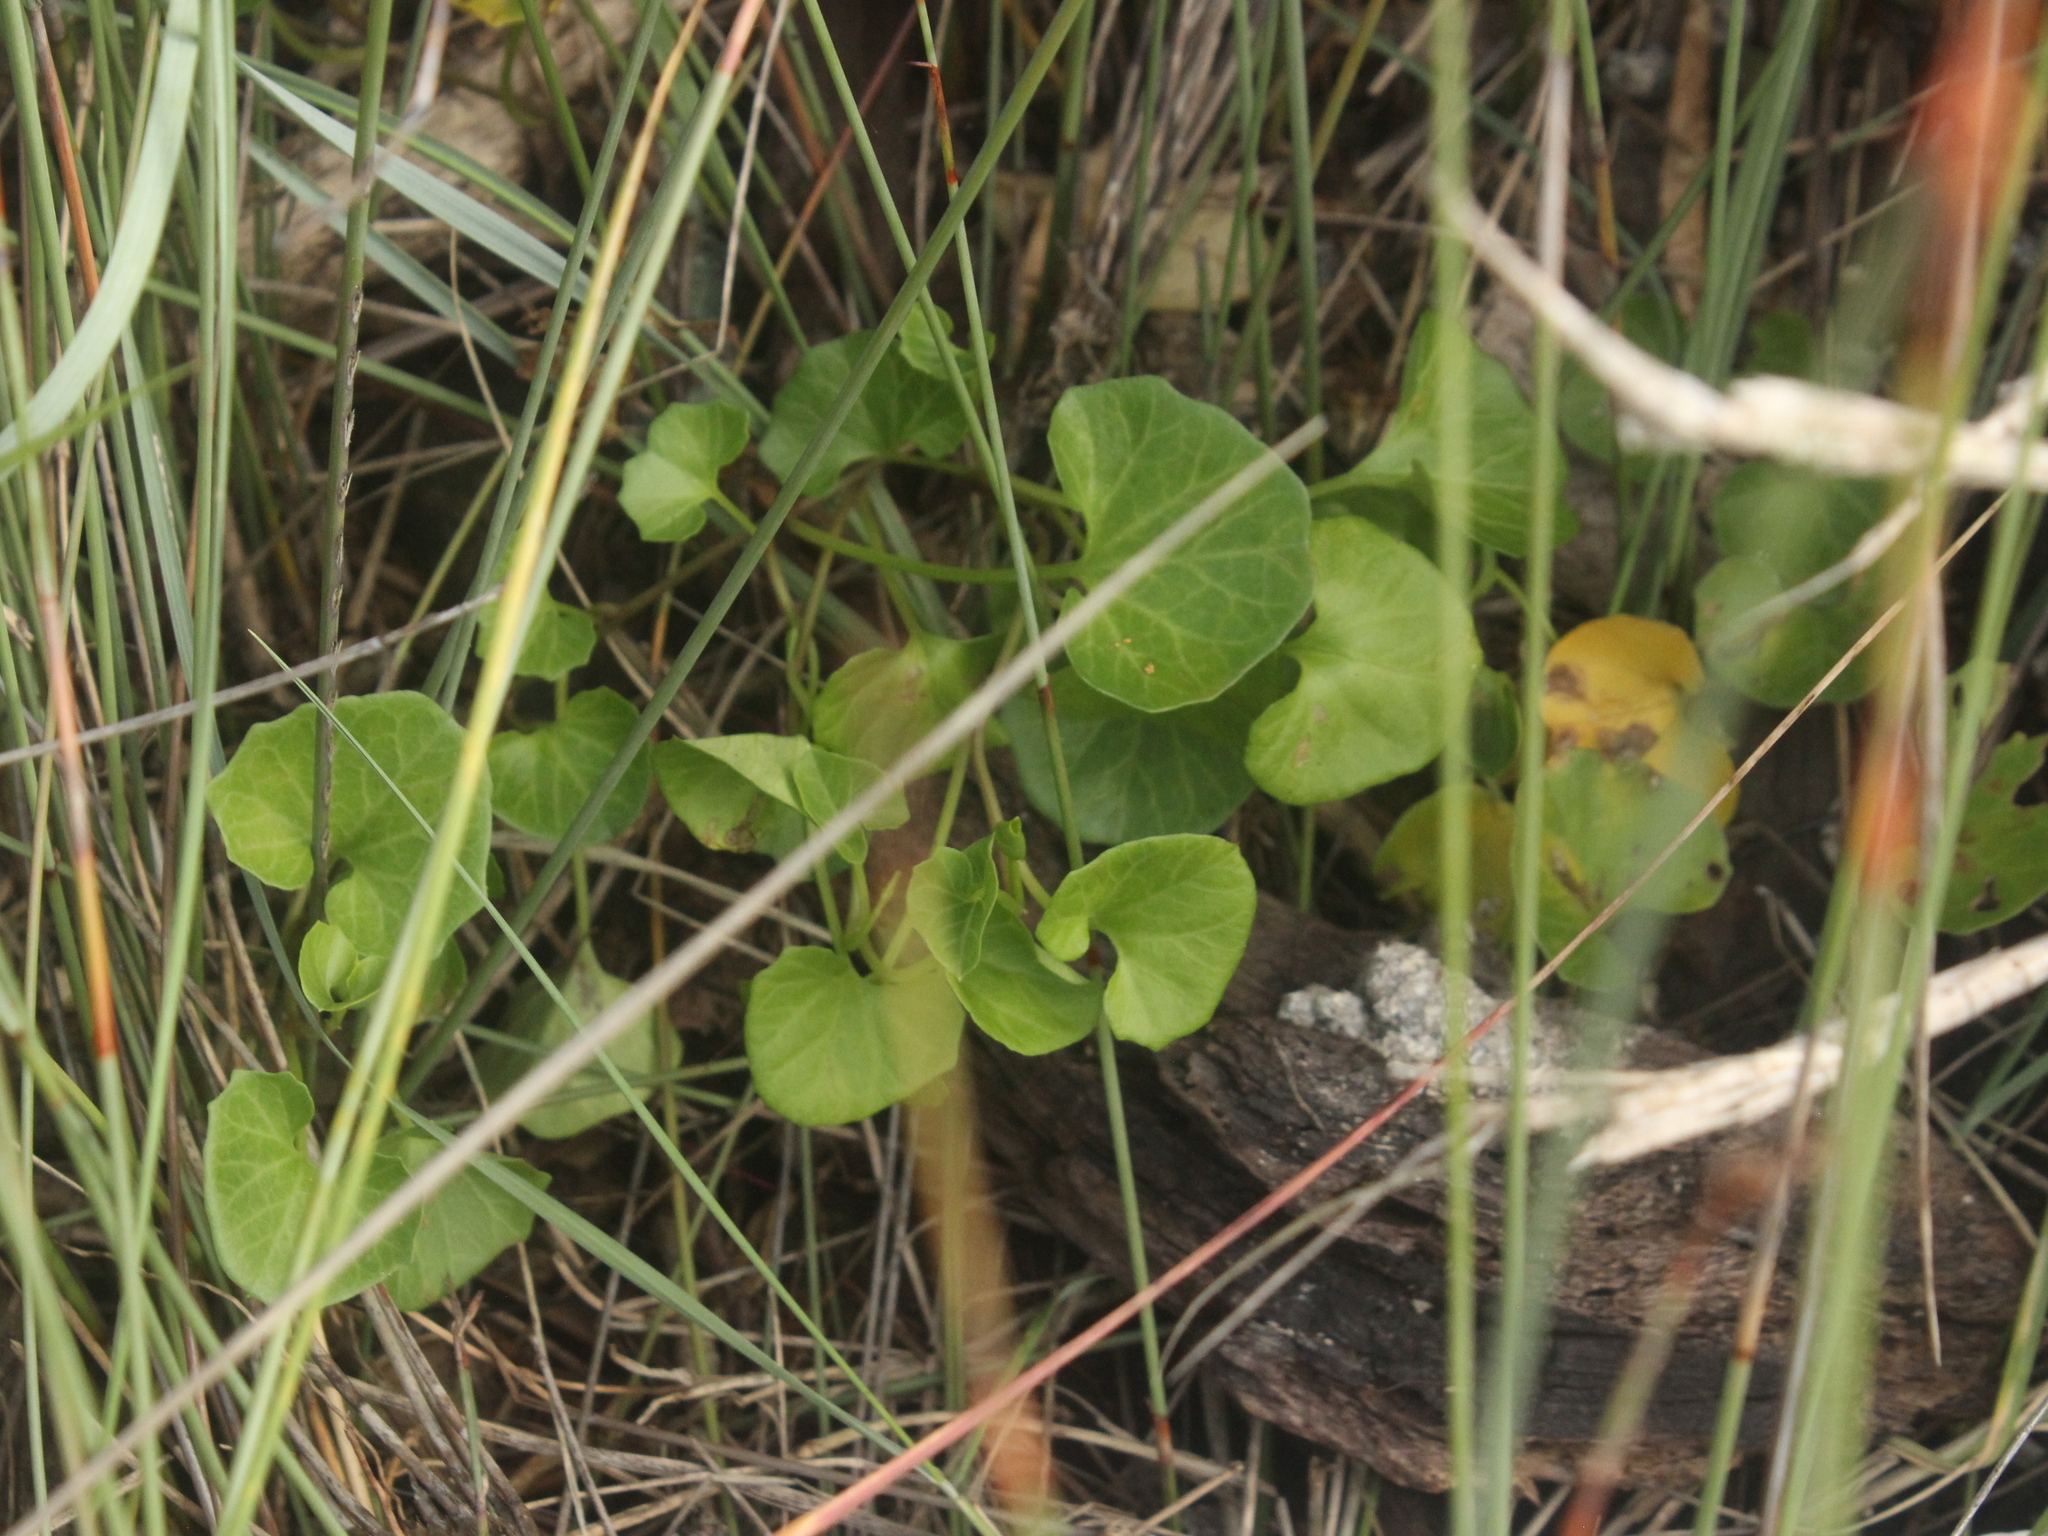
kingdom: Plantae
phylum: Tracheophyta
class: Magnoliopsida
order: Solanales
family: Convolvulaceae
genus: Calystegia
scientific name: Calystegia soldanella
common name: Sea bindweed
